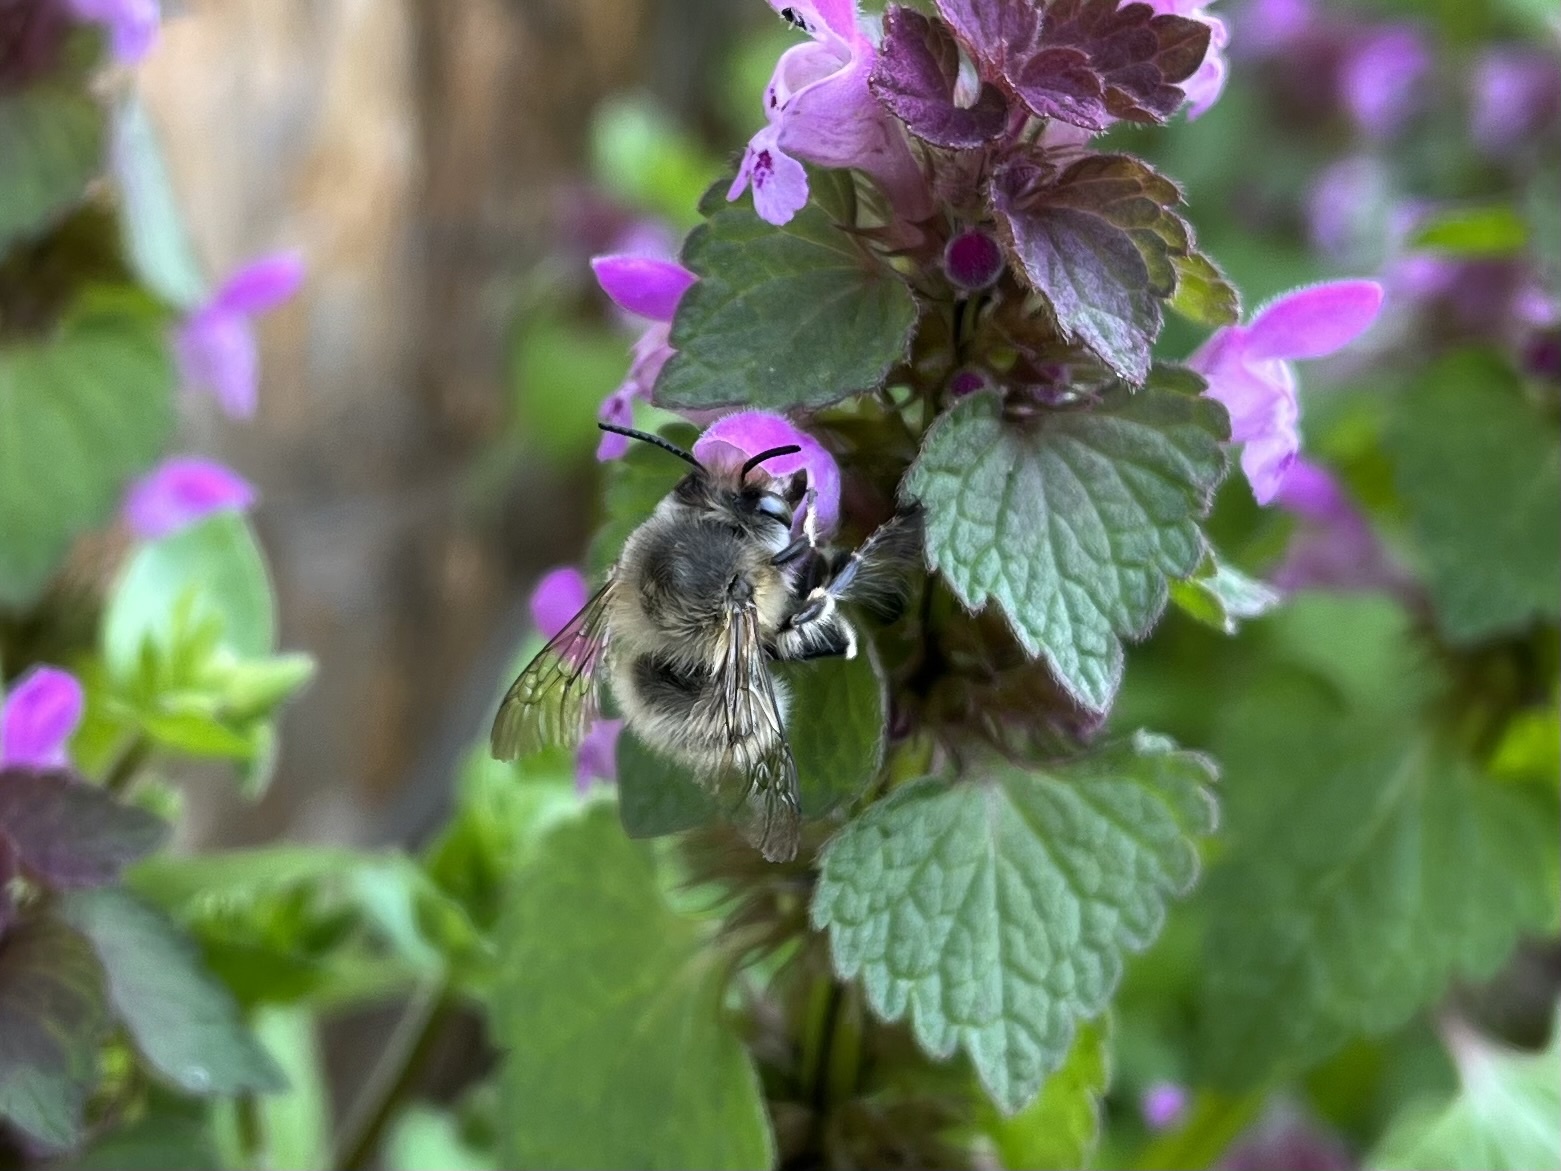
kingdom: Animalia
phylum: Arthropoda
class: Insecta
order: Hymenoptera
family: Apidae
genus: Anthophora
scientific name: Anthophora plumipes
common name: Hairy-footed flower bee
